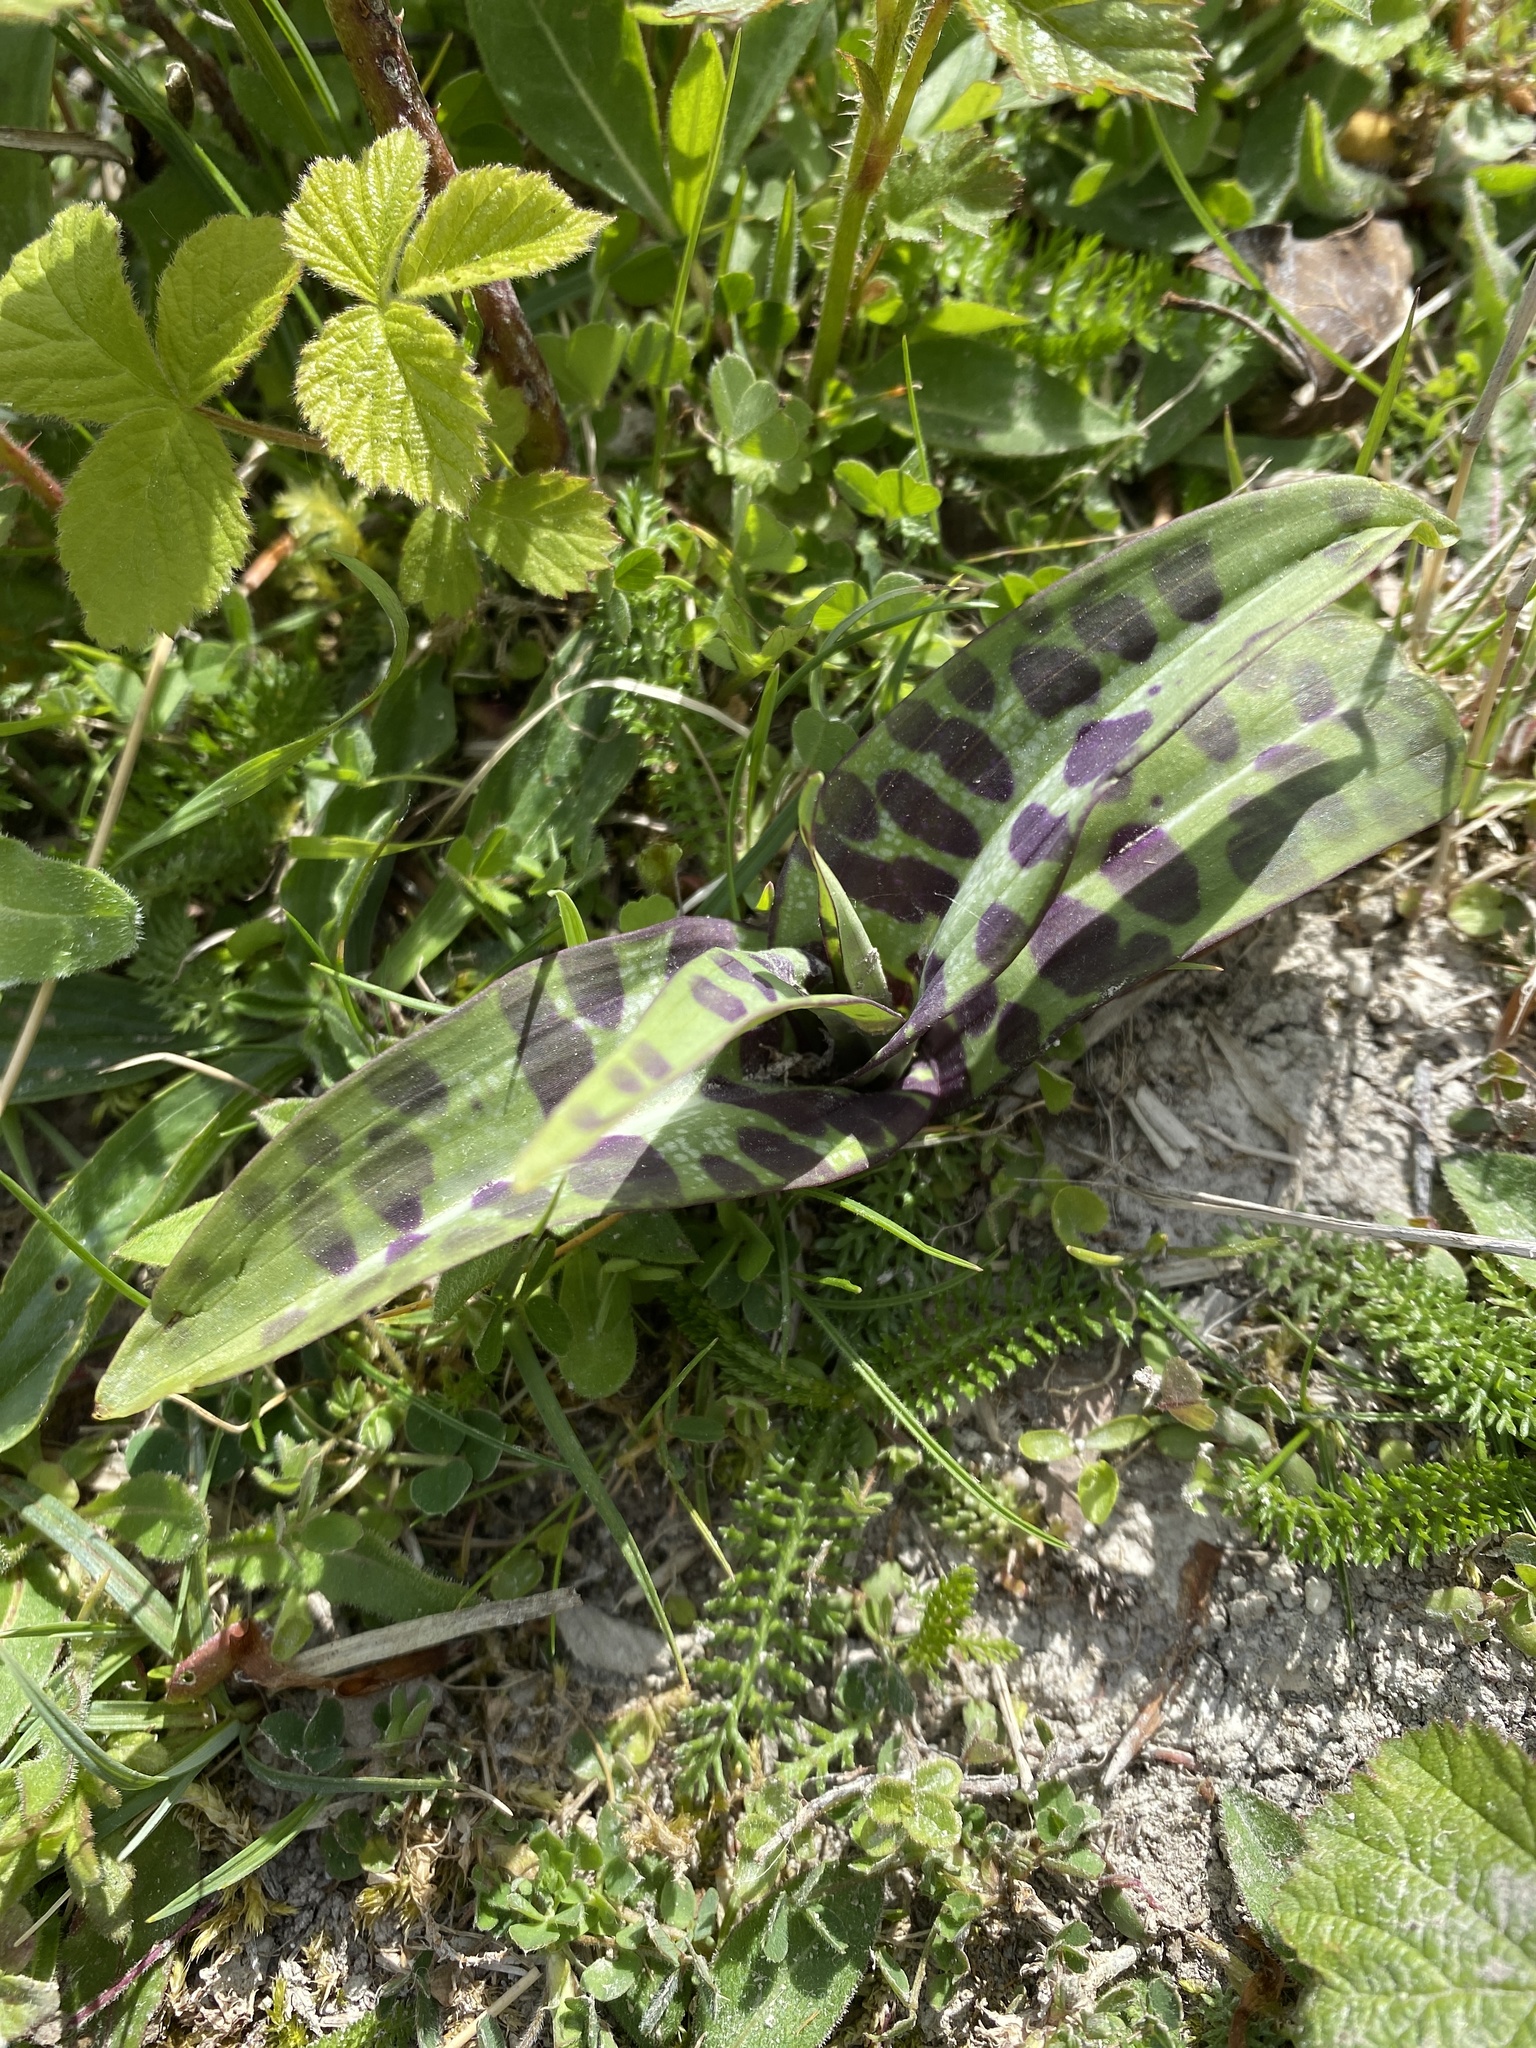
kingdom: Plantae
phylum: Tracheophyta
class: Liliopsida
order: Asparagales
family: Orchidaceae
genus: Dactylorhiza
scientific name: Dactylorhiza maculata
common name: Heath spotted-orchid
